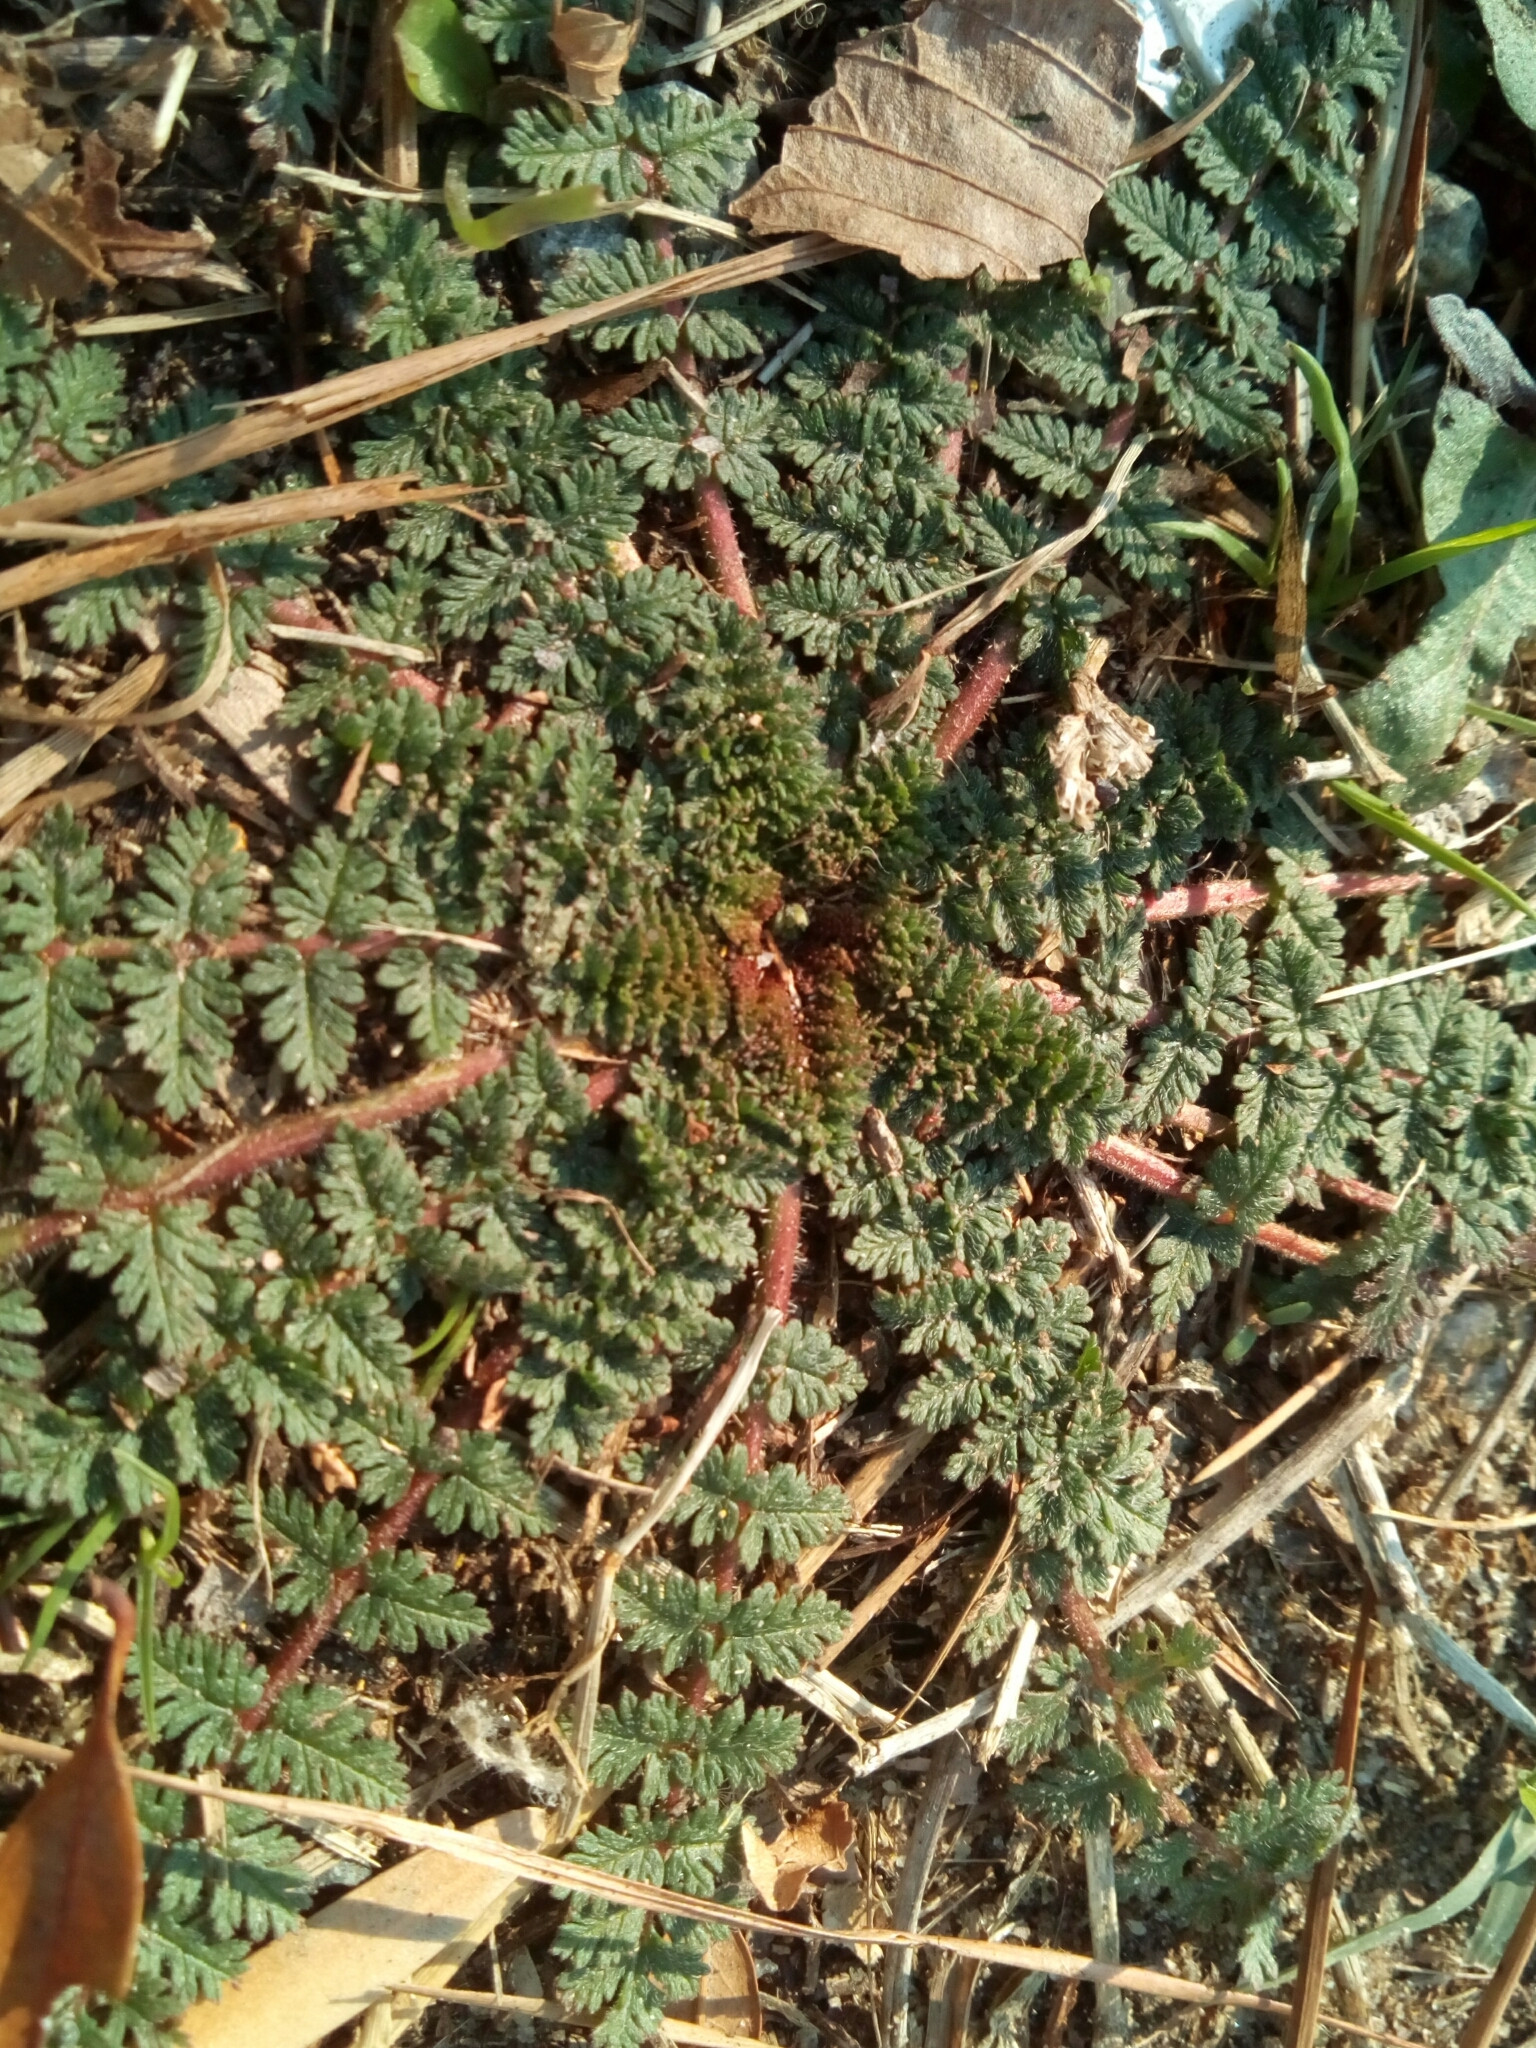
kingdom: Plantae
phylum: Tracheophyta
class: Magnoliopsida
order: Geraniales
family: Geraniaceae
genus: Erodium
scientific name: Erodium cicutarium
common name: Common stork's-bill
